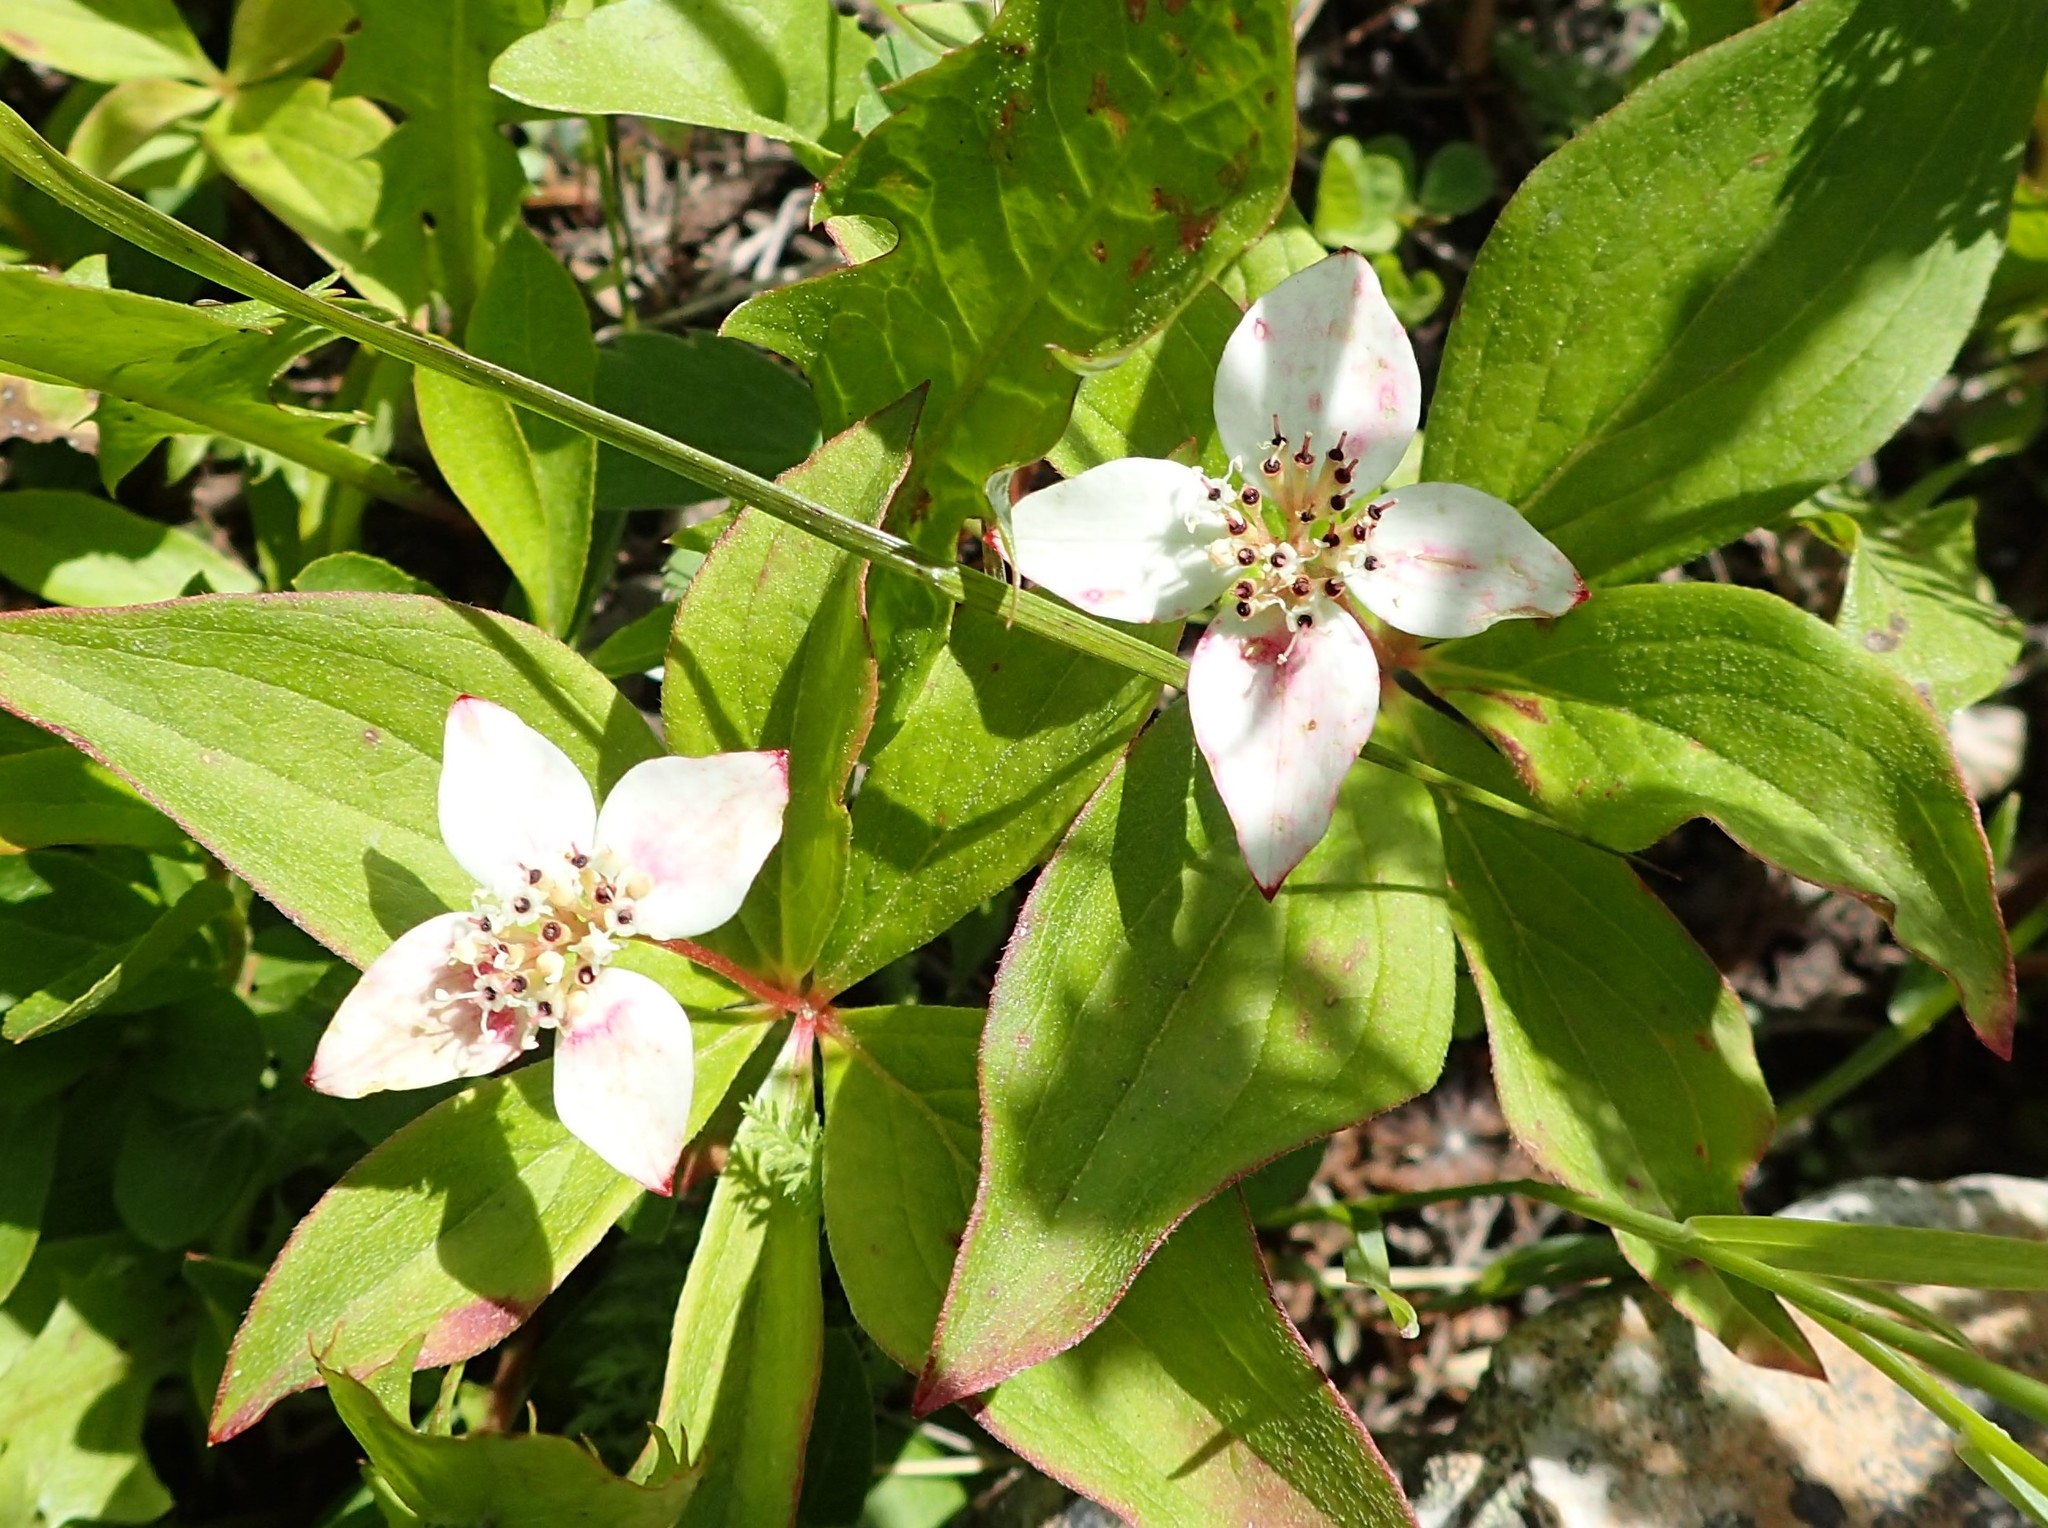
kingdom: Plantae
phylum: Tracheophyta
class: Magnoliopsida
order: Cornales
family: Cornaceae
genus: Cornus
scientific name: Cornus canadensis
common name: Creeping dogwood
